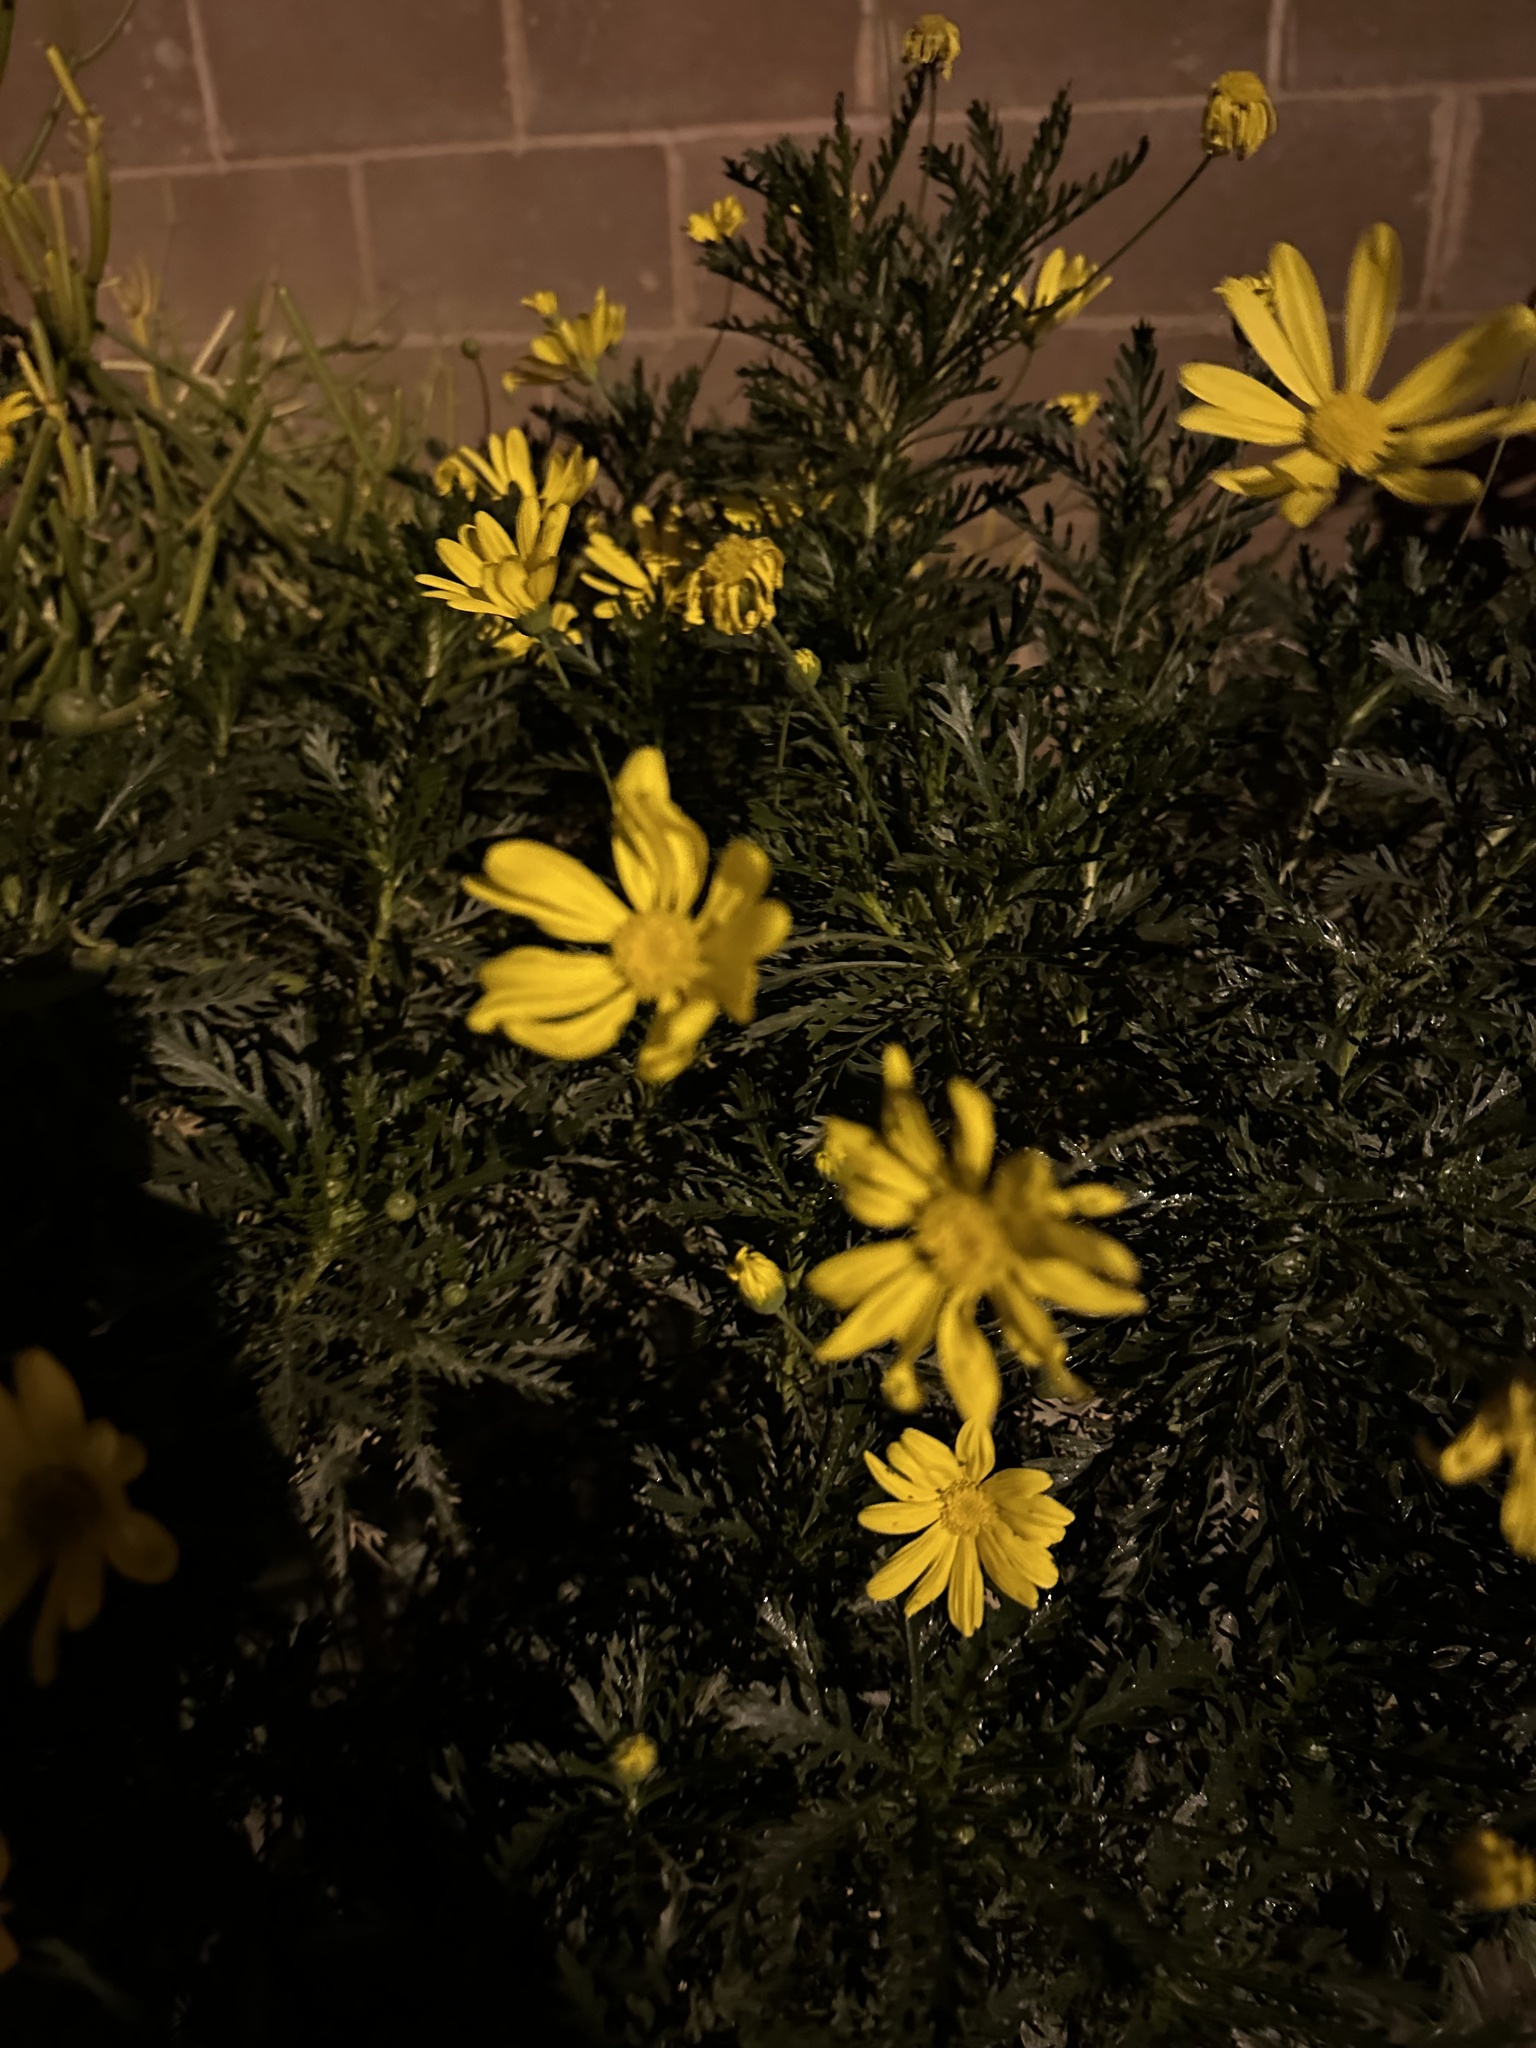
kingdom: Plantae
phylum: Tracheophyta
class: Magnoliopsida
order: Asterales
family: Asteraceae
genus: Euryops
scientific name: Euryops pectinatus
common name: Gray-leaf euryops
